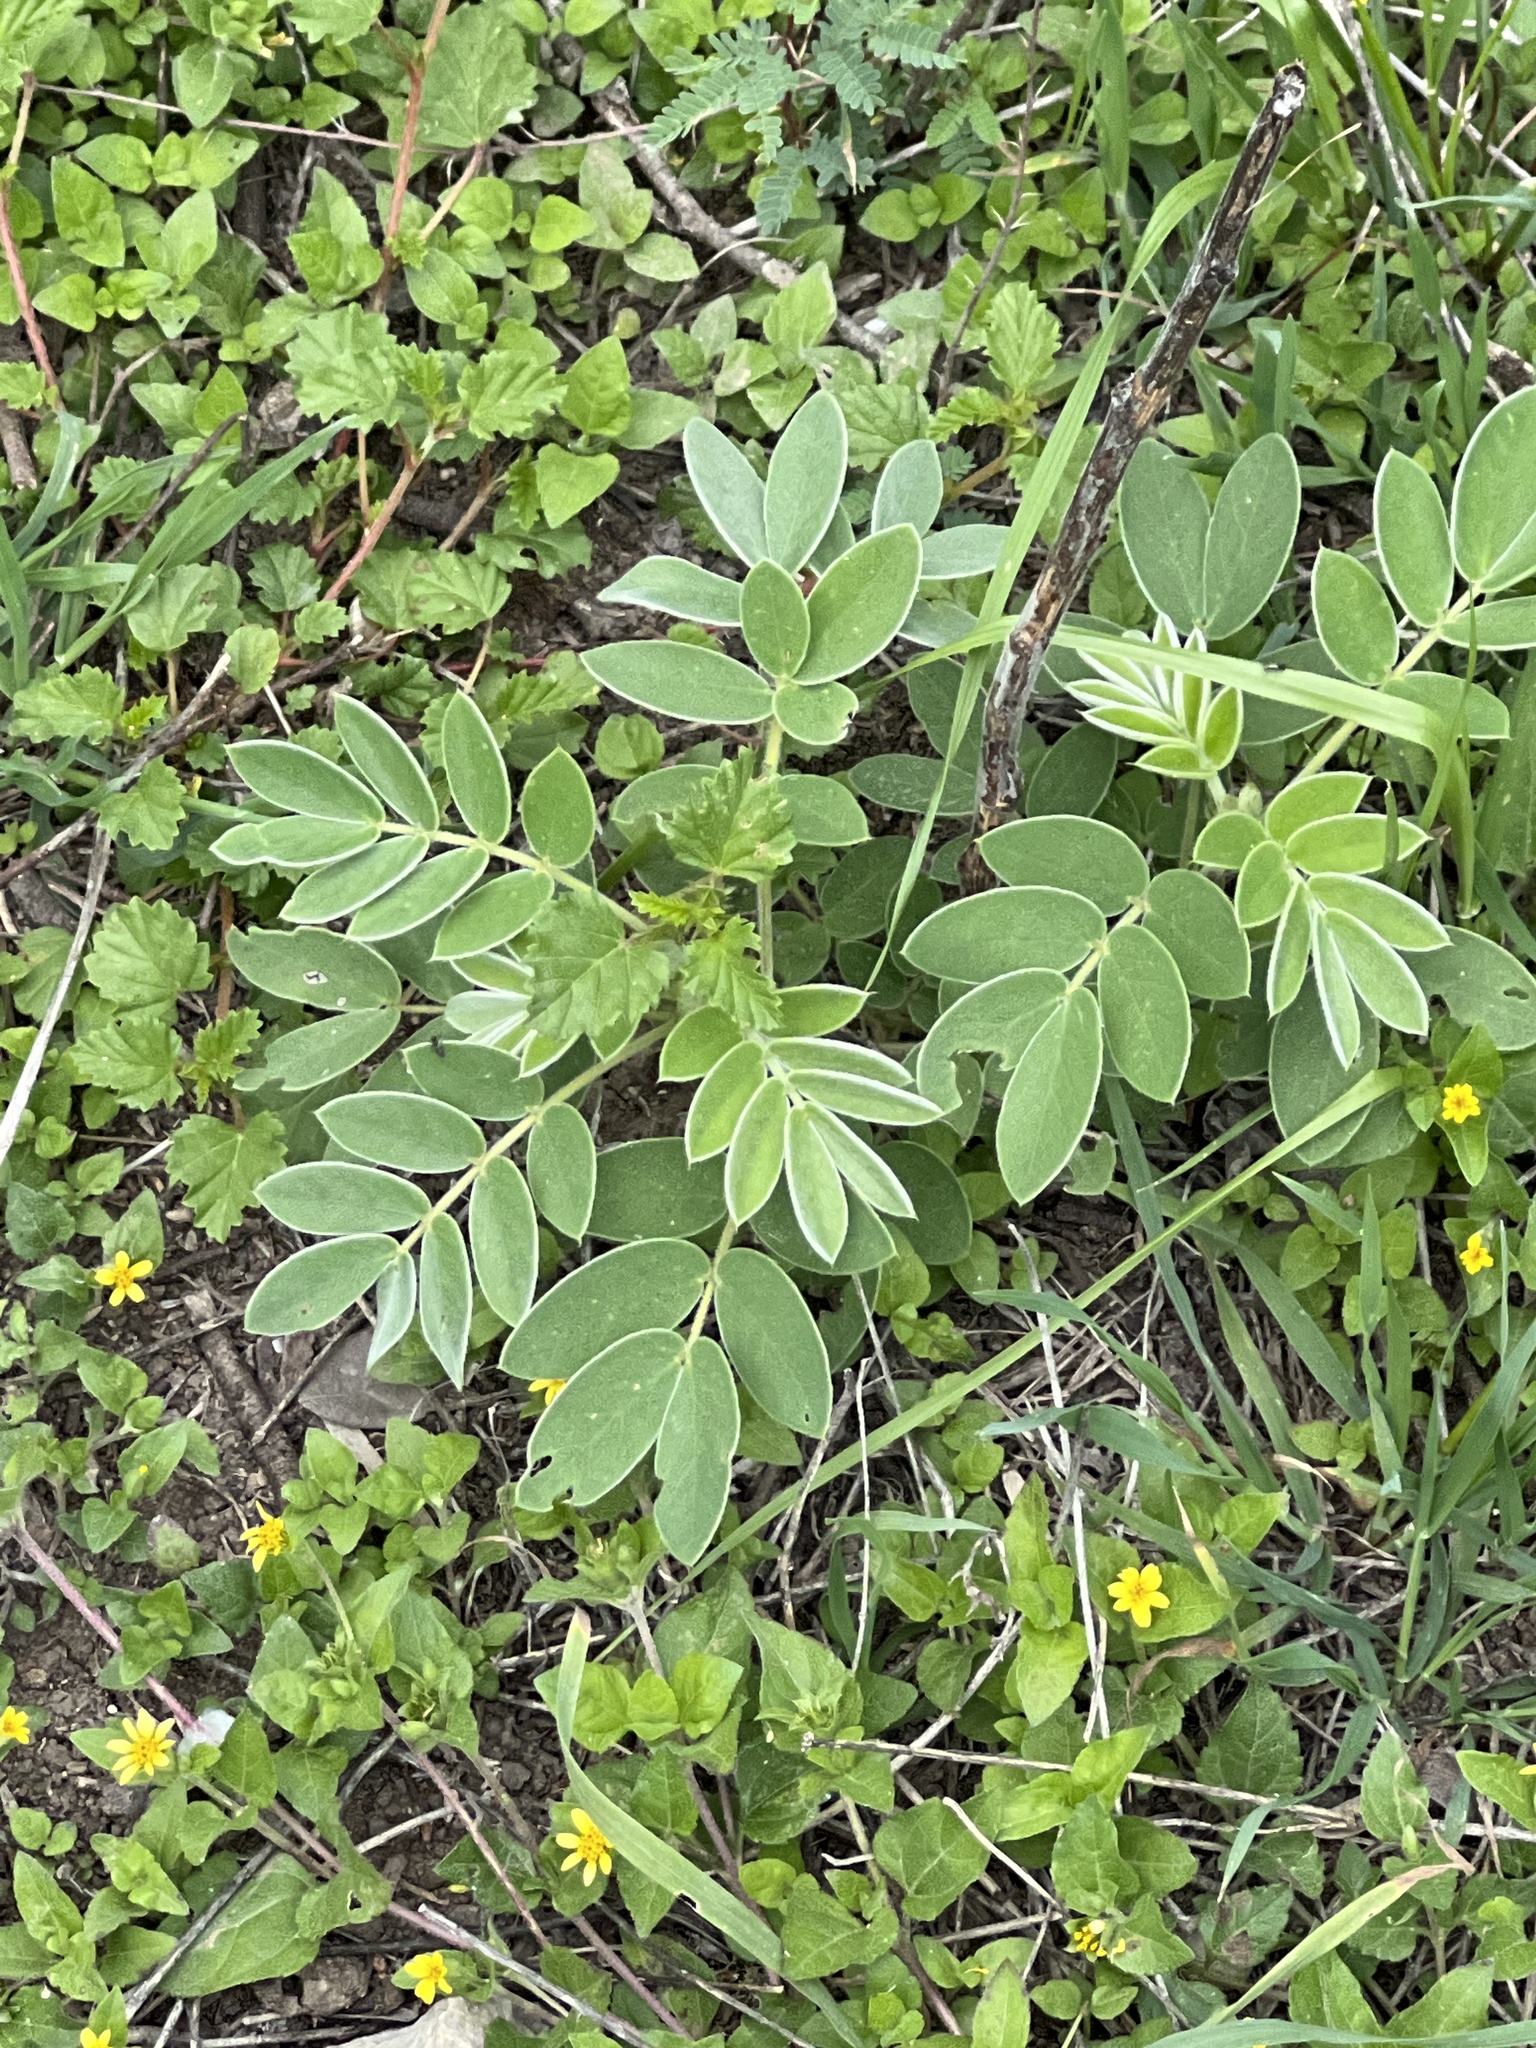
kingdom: Plantae
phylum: Tracheophyta
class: Magnoliopsida
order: Fabales
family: Fabaceae
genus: Senna
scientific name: Senna lindheimeriana
